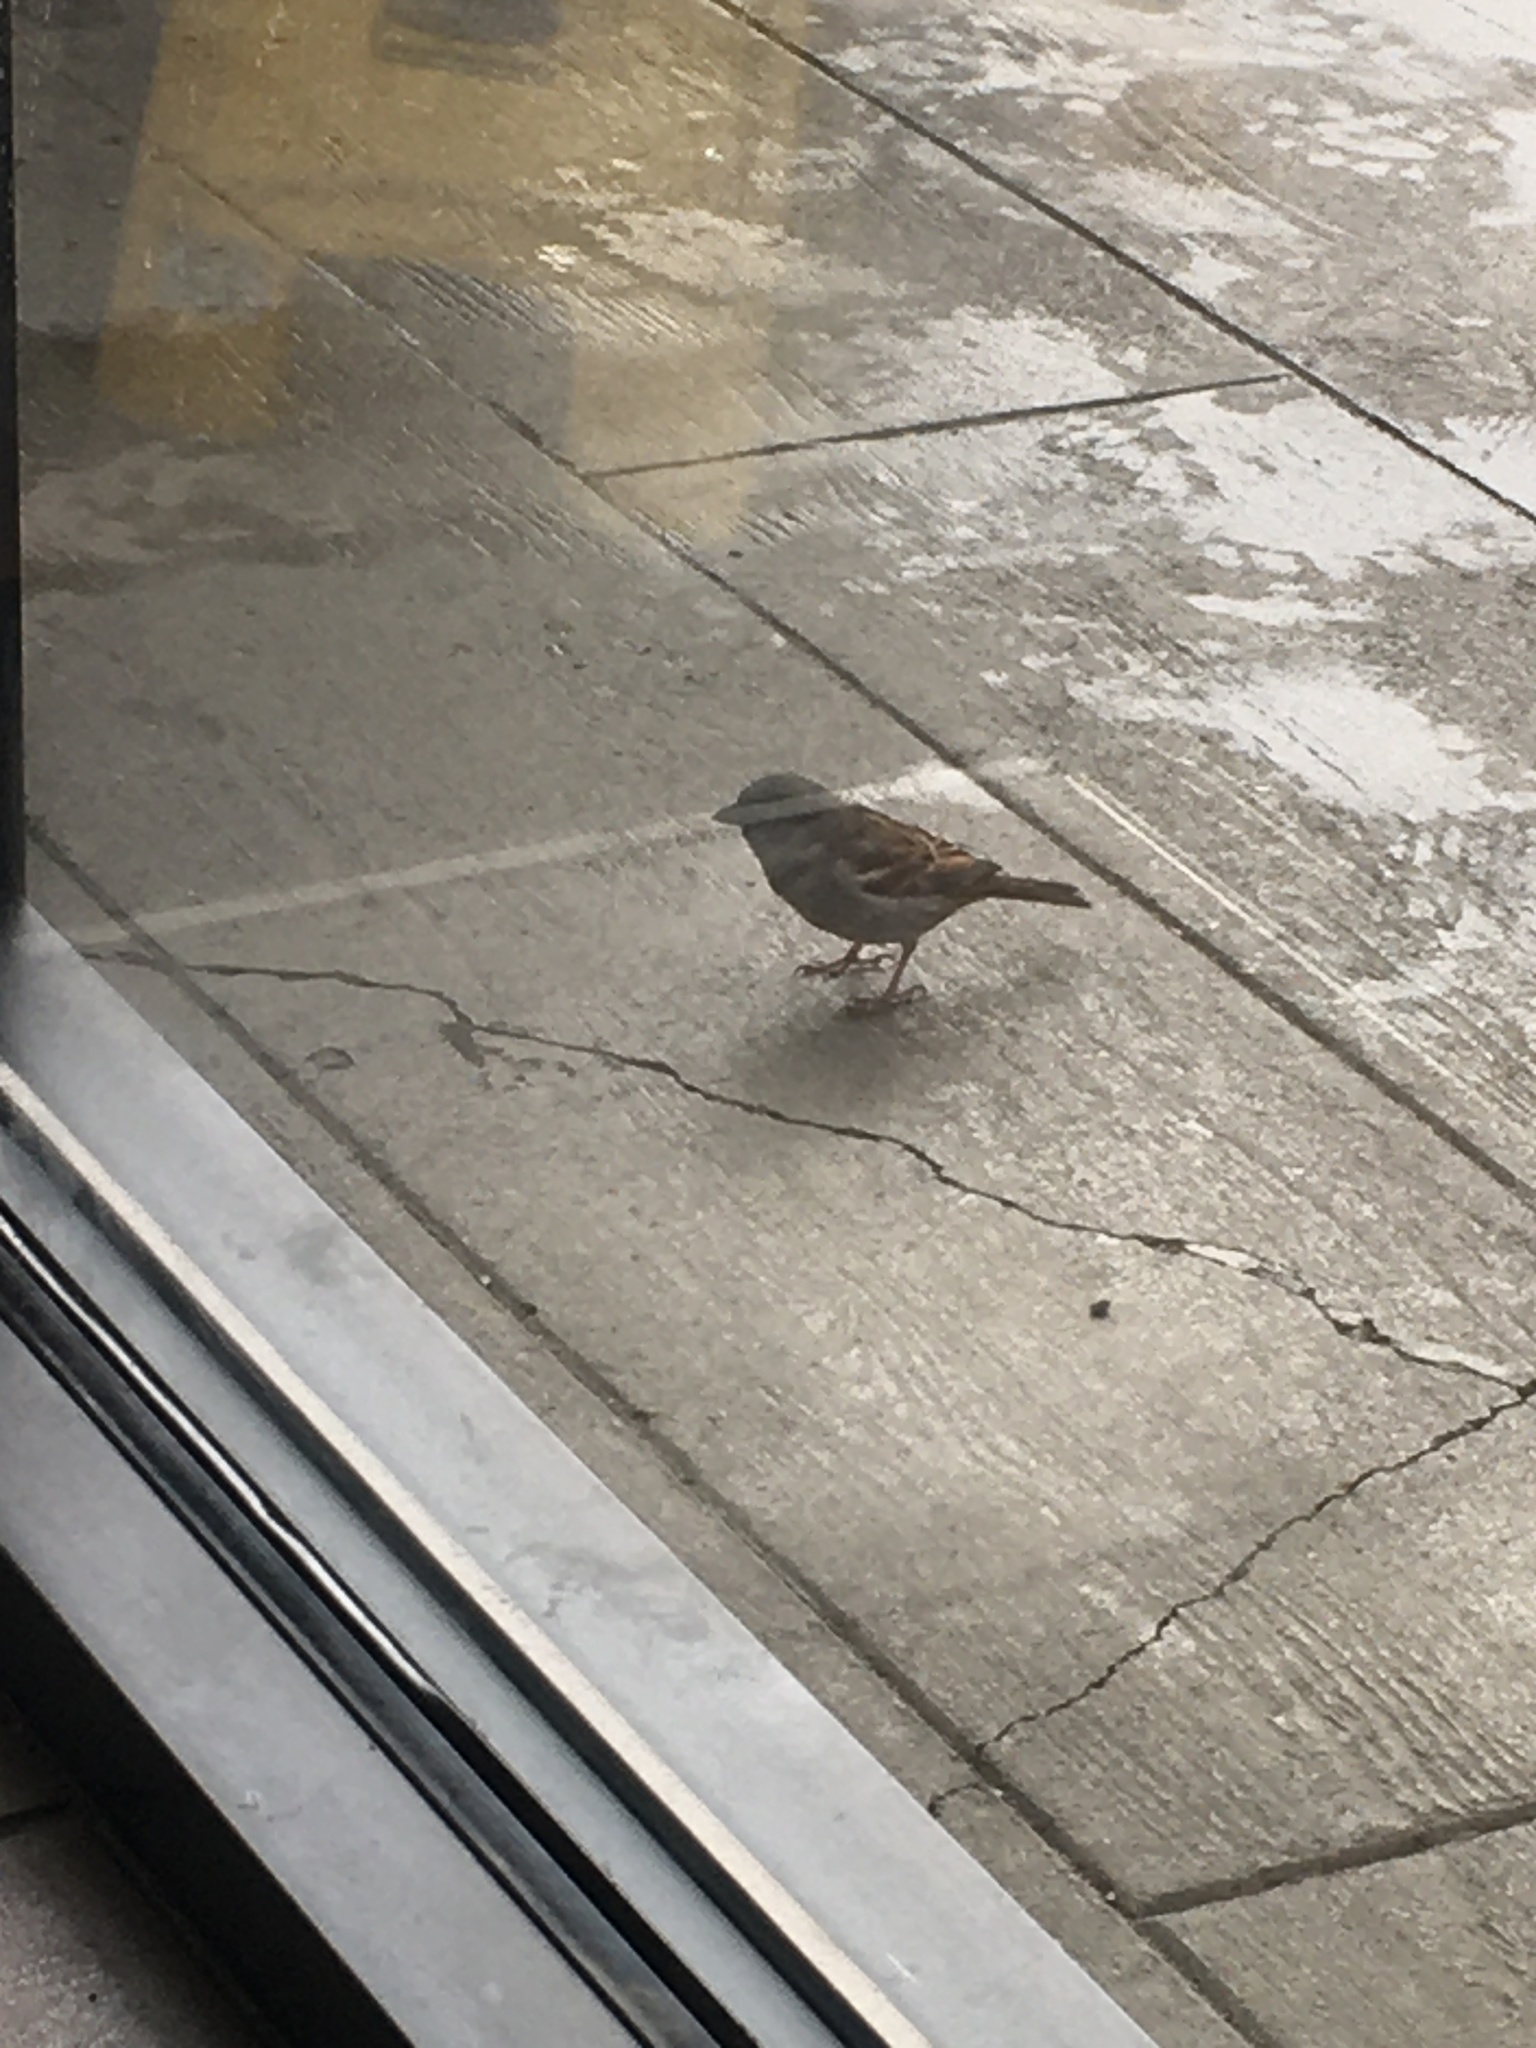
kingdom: Animalia
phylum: Chordata
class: Aves
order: Passeriformes
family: Passeridae
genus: Passer
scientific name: Passer domesticus
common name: House sparrow
